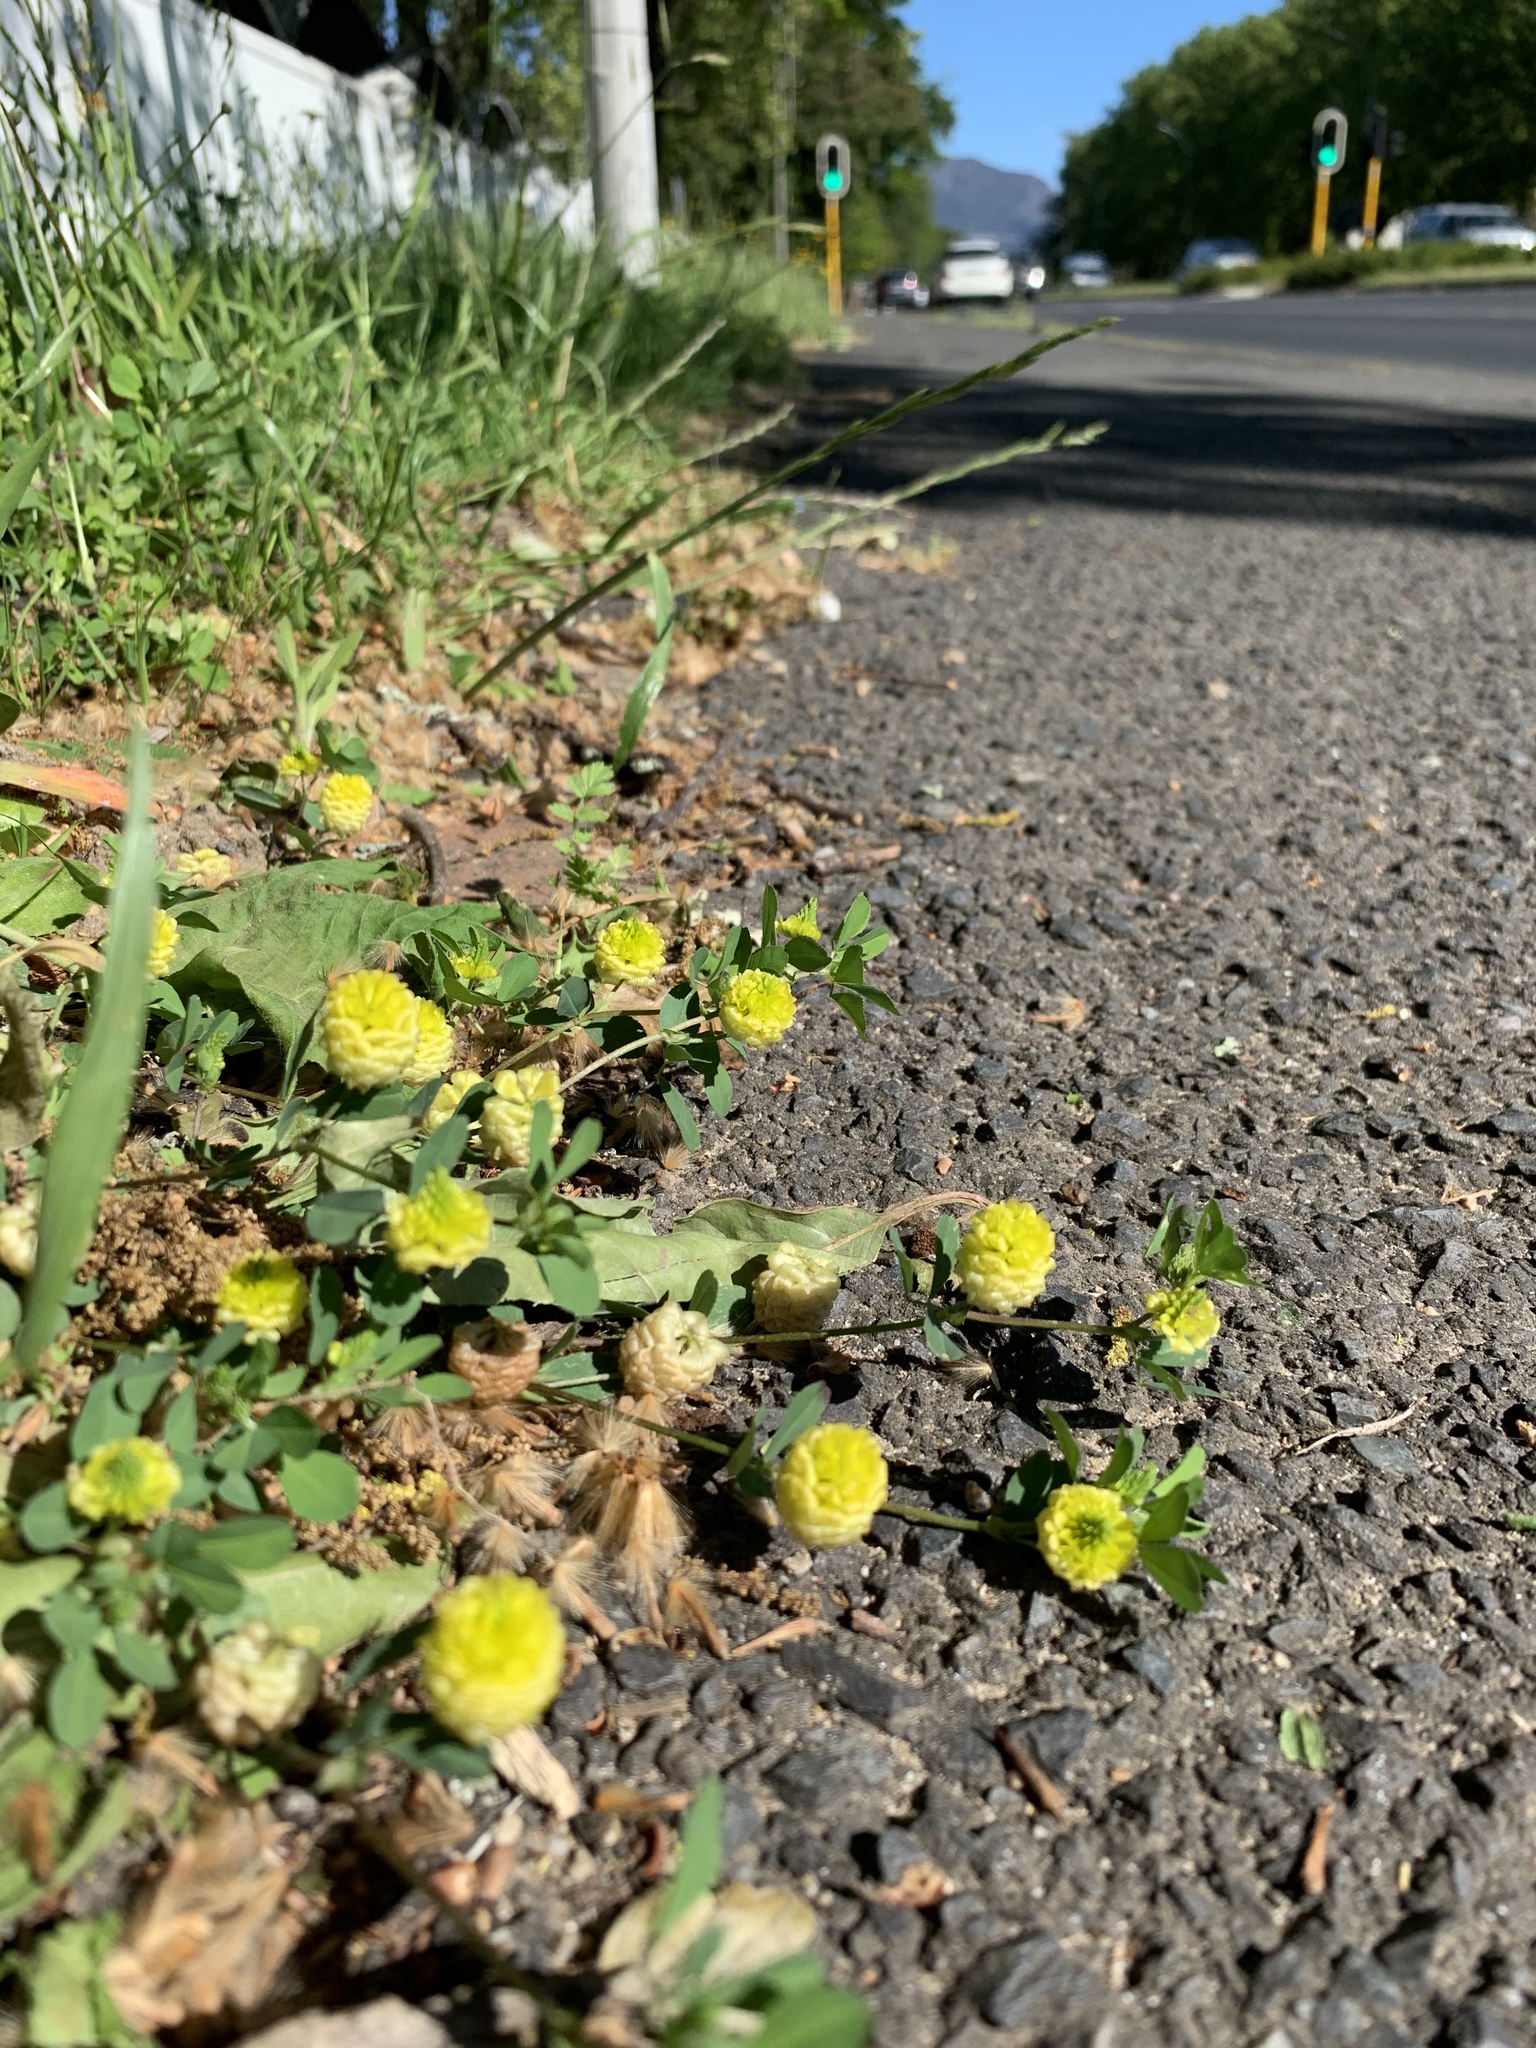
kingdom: Plantae
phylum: Tracheophyta
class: Magnoliopsida
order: Fabales
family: Fabaceae
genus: Trifolium
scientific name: Trifolium campestre
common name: Field clover
